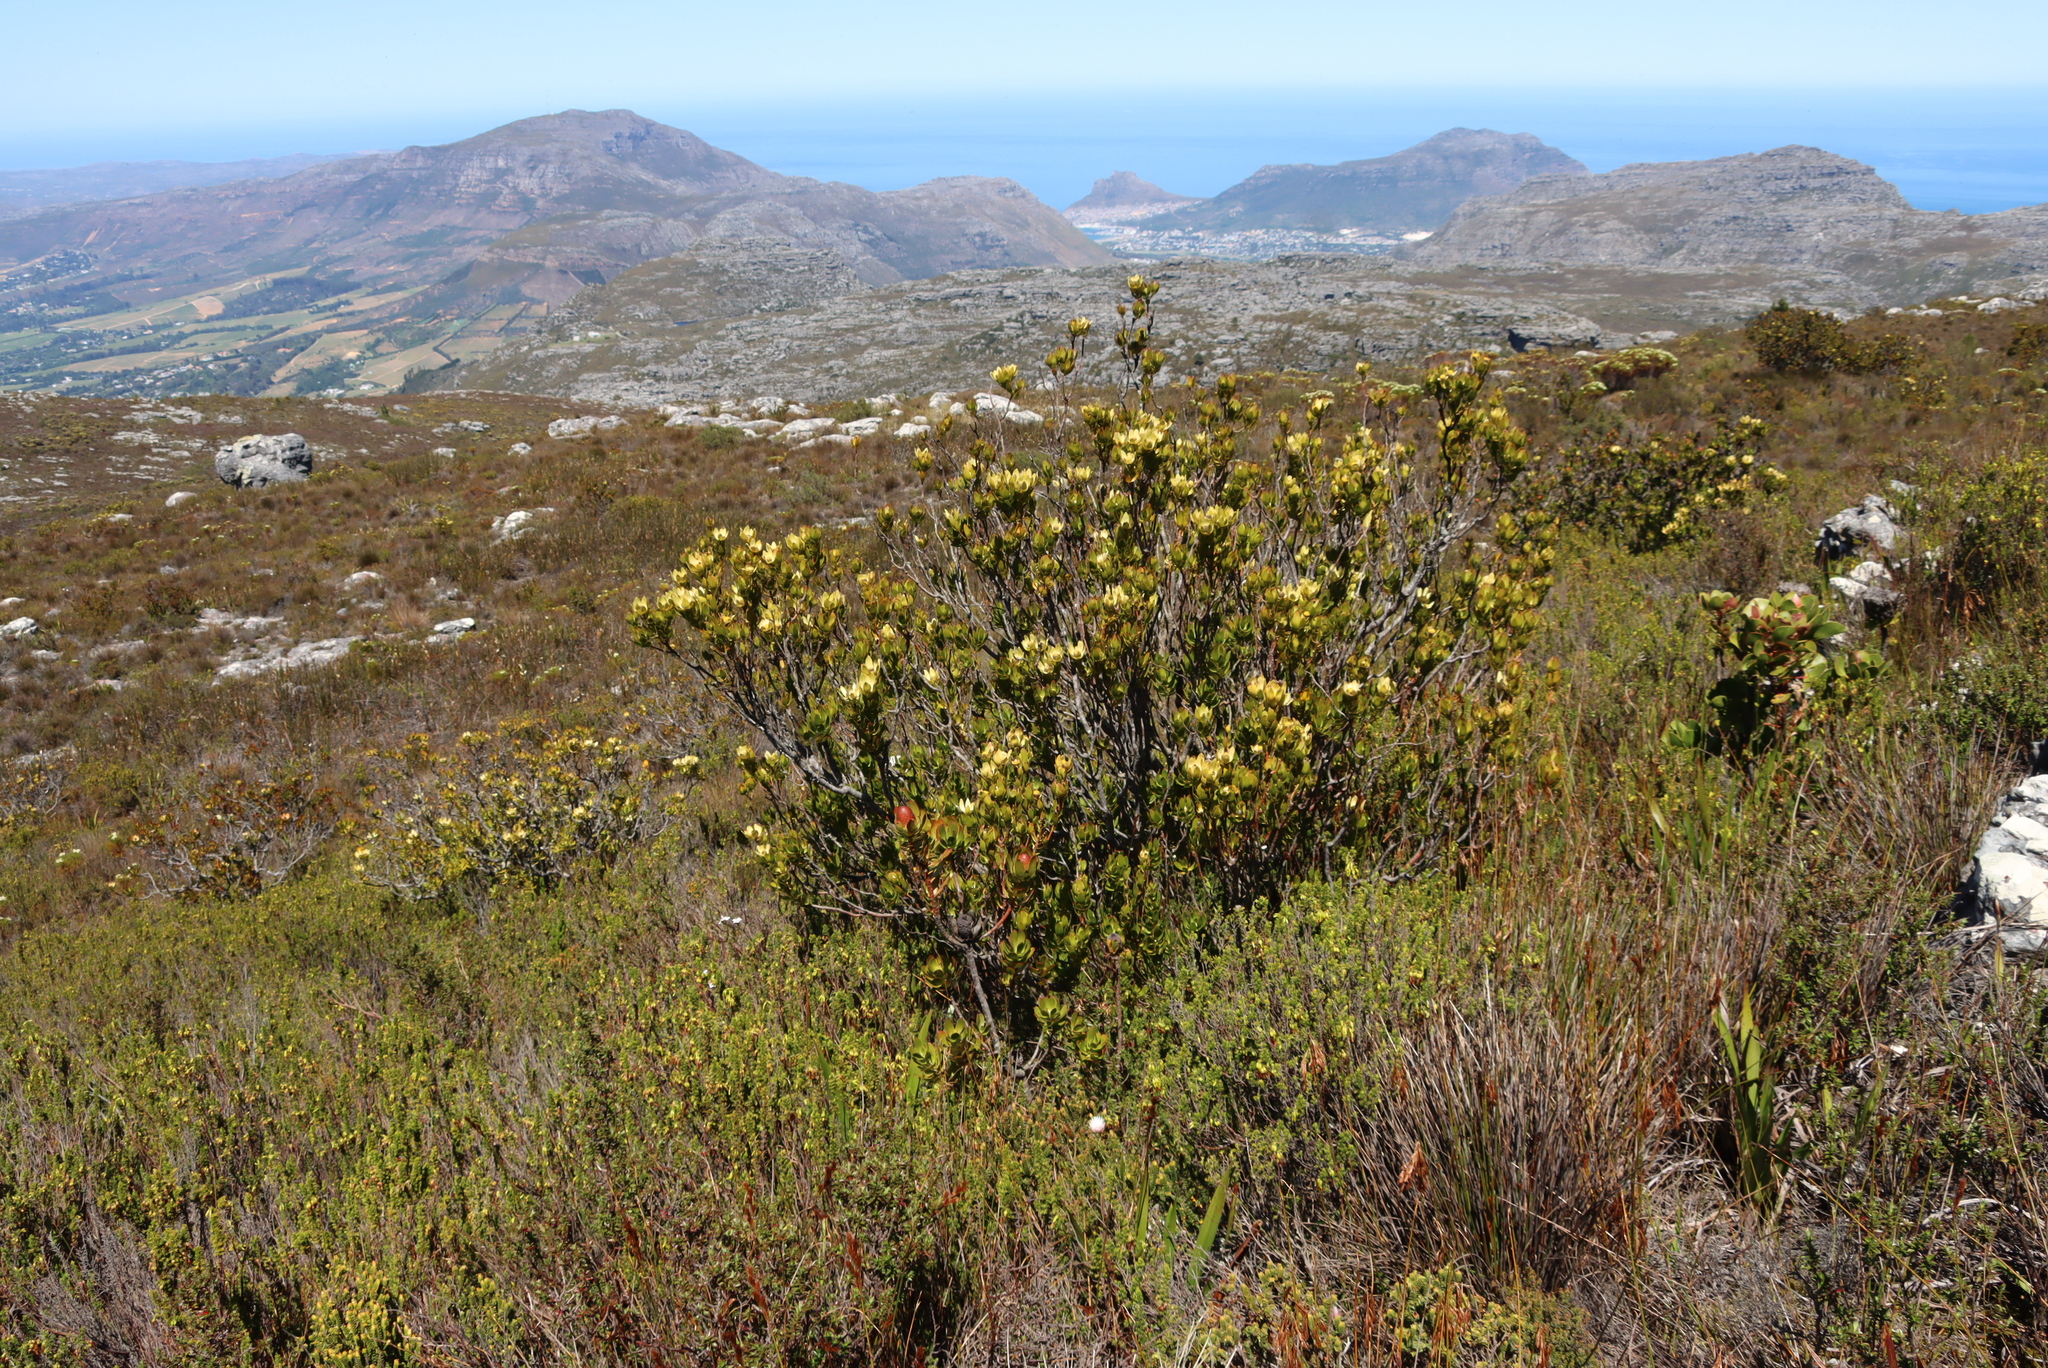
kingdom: Plantae
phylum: Tracheophyta
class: Magnoliopsida
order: Proteales
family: Proteaceae
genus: Leucadendron
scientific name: Leucadendron strobilinum
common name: Mountain rose
